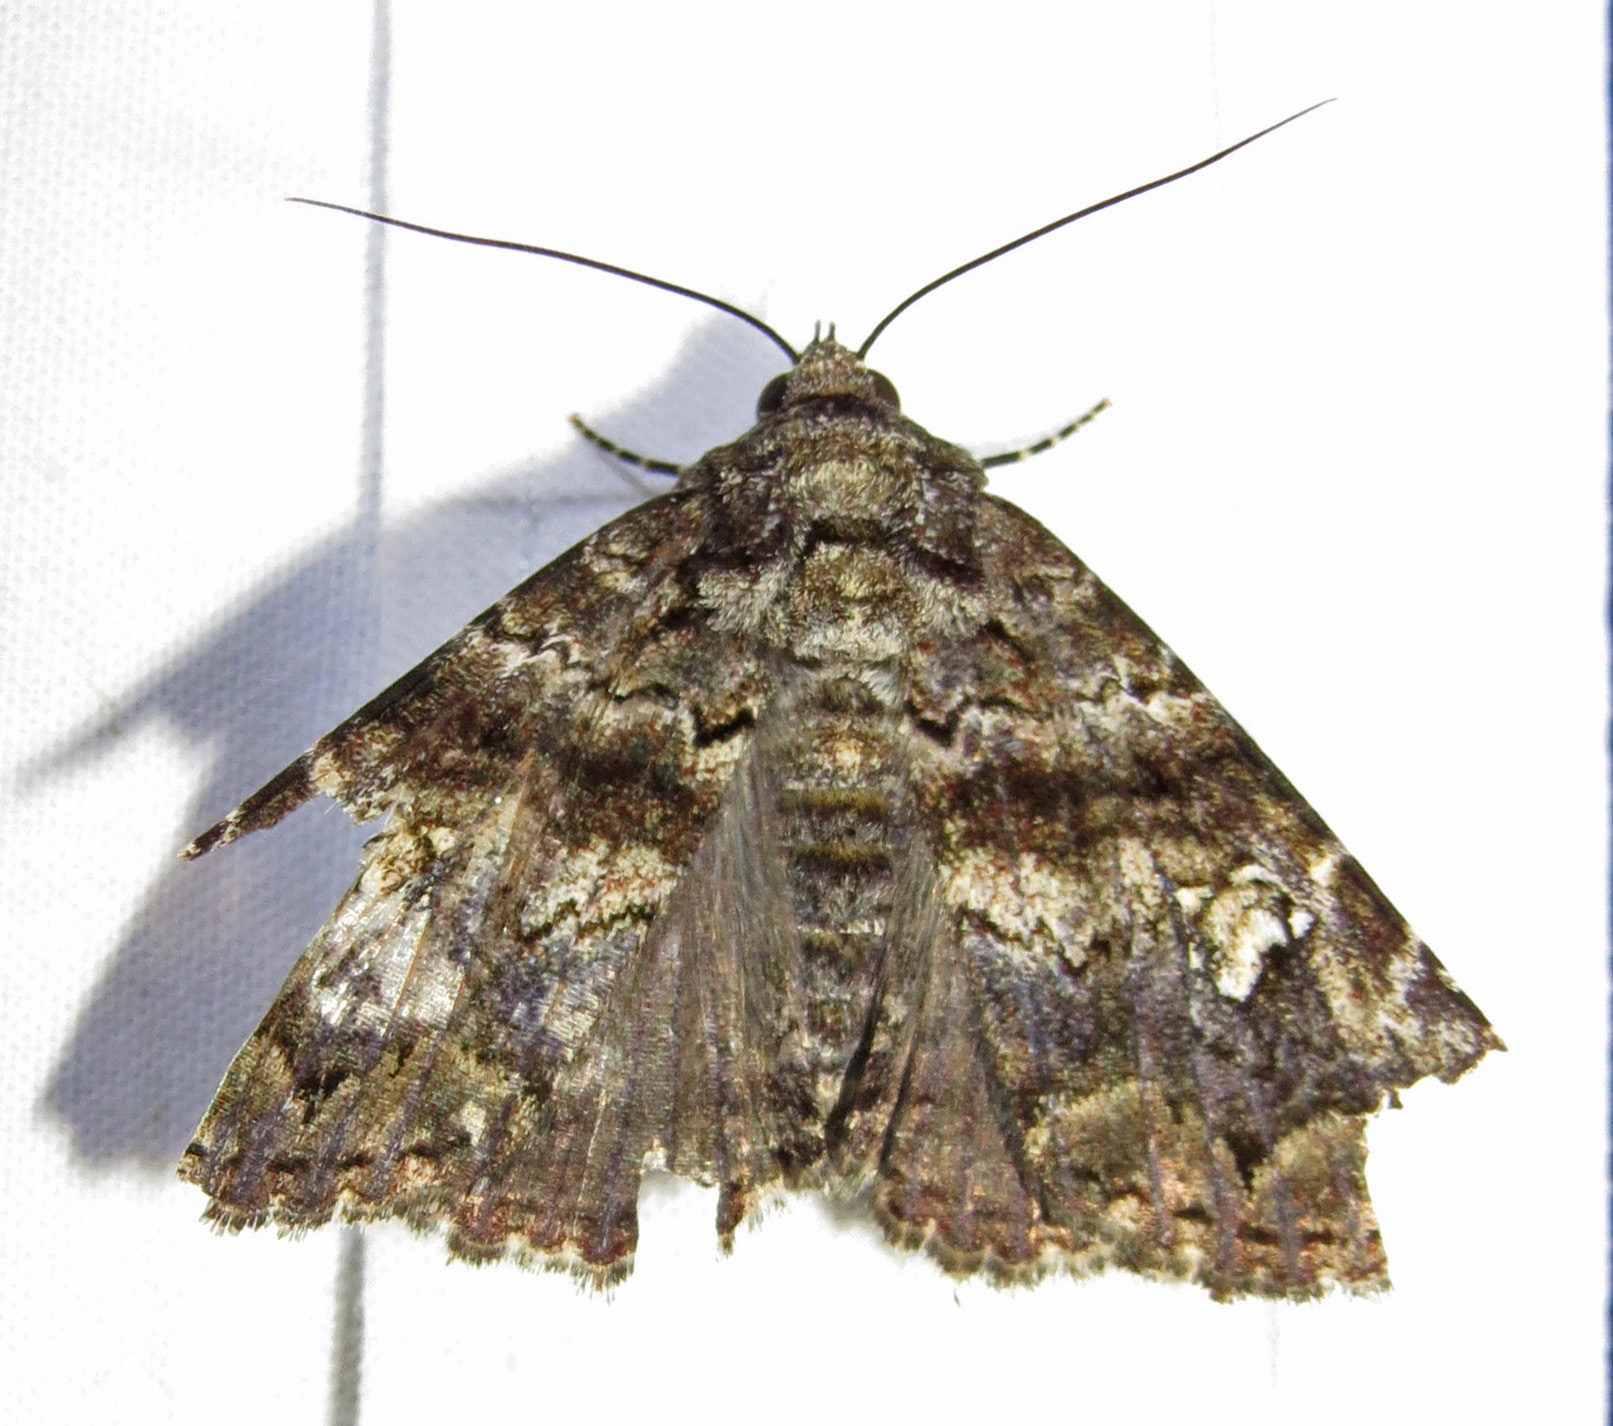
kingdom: Animalia
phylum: Arthropoda
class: Insecta
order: Lepidoptera
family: Erebidae
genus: Metria
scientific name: Metria amella
